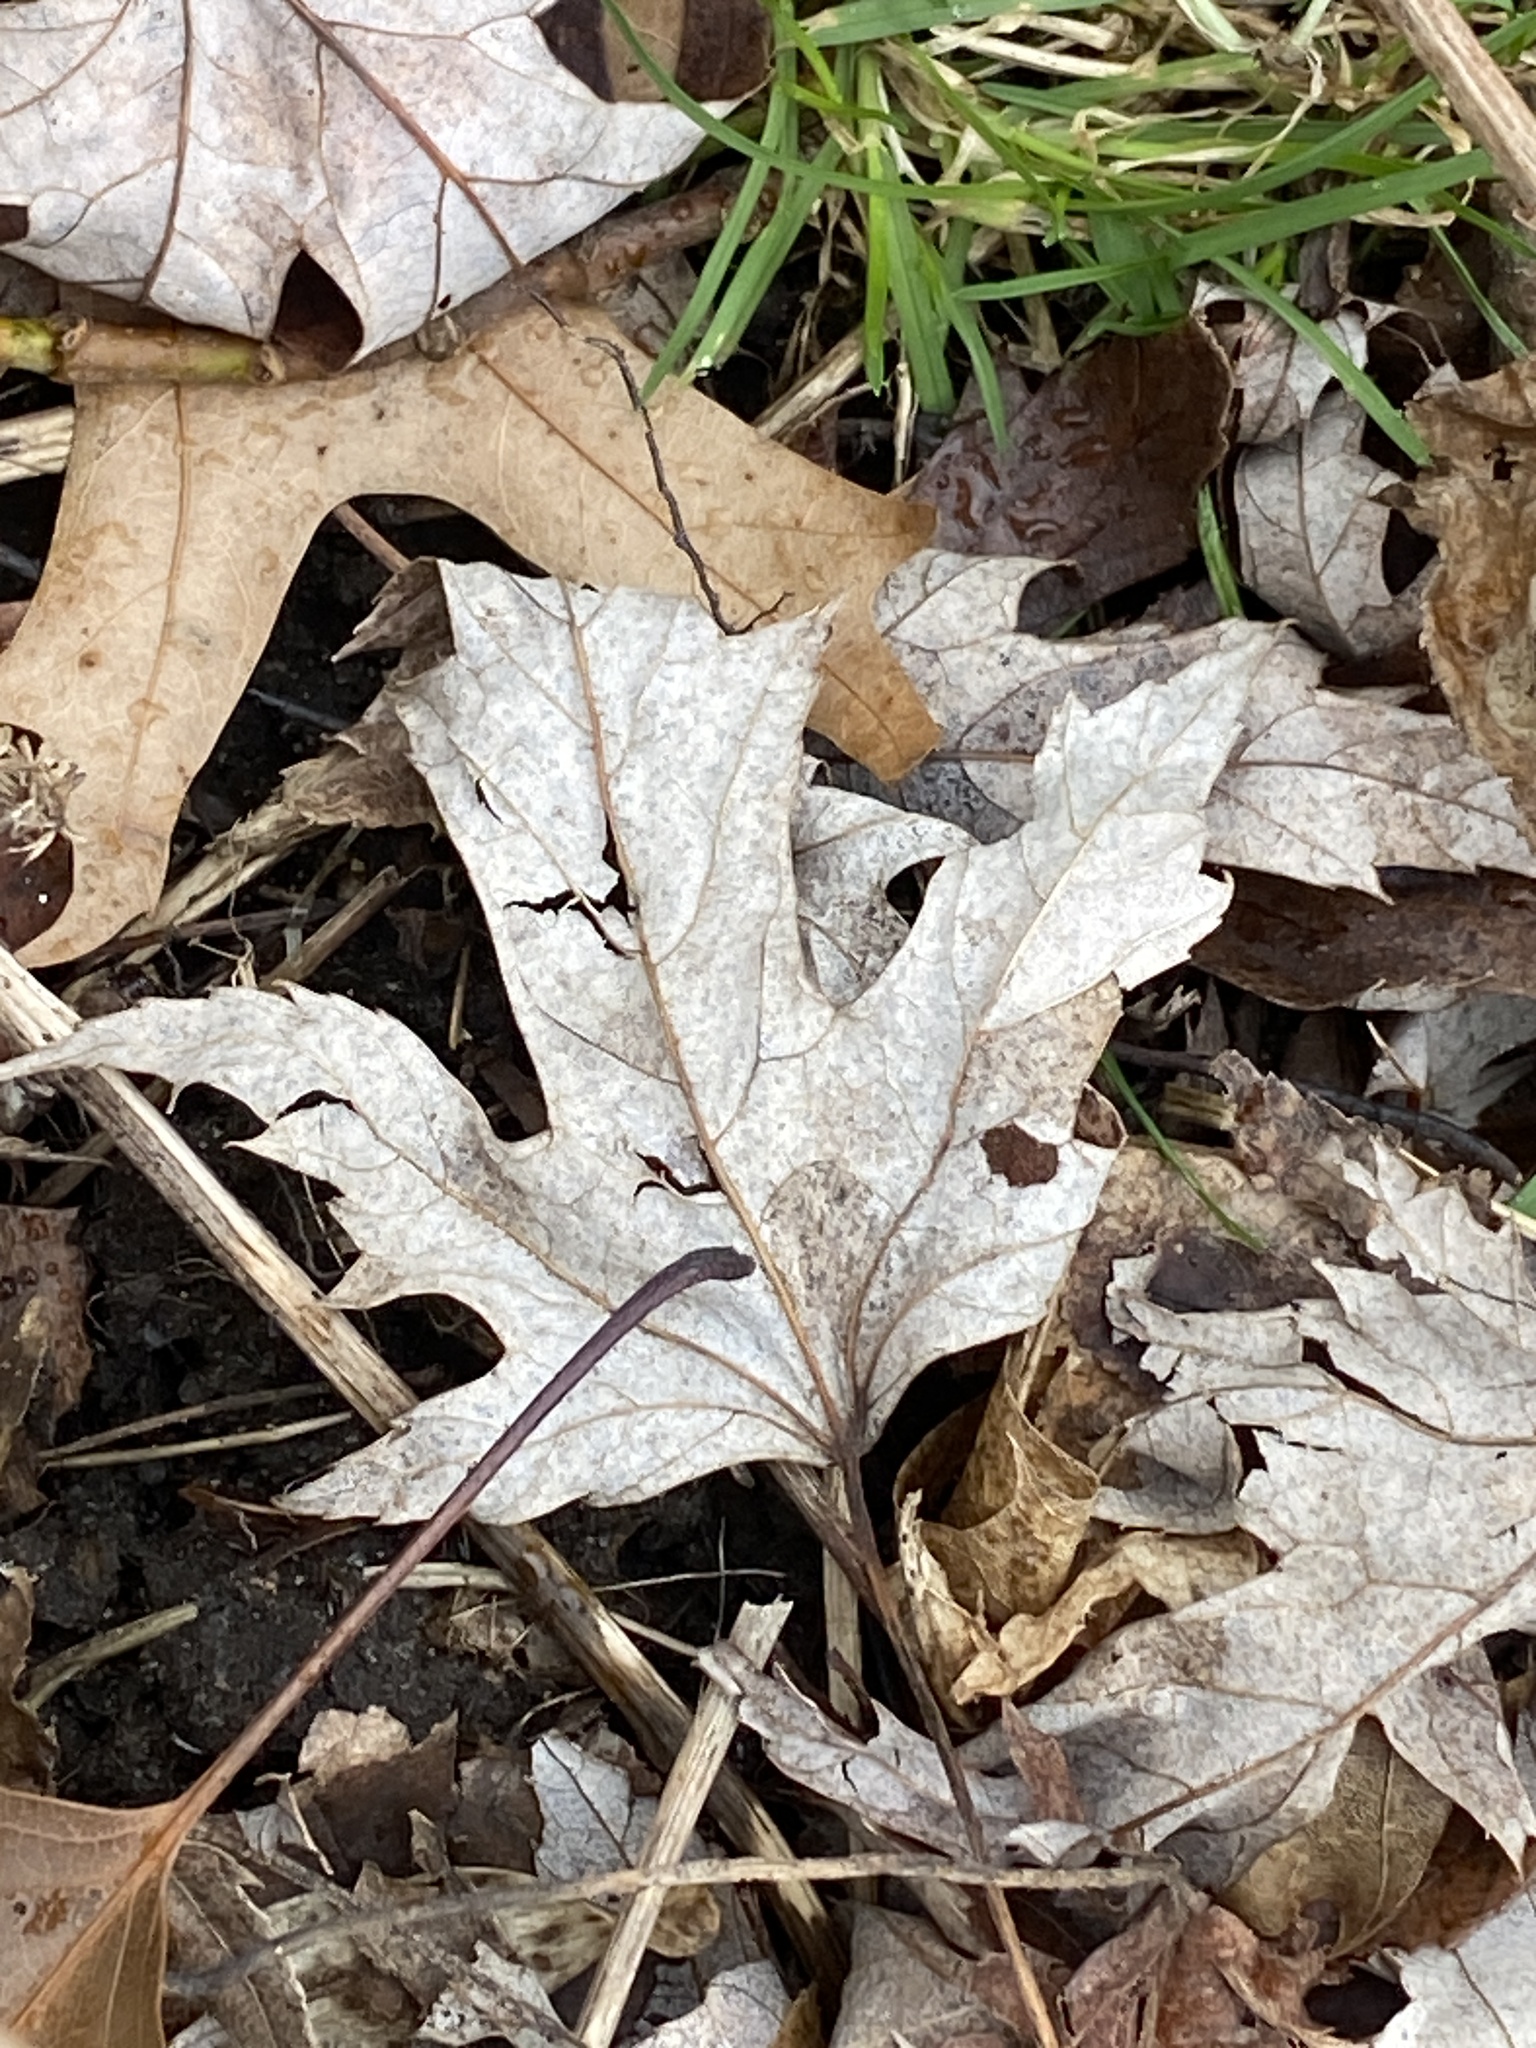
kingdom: Plantae
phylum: Tracheophyta
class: Magnoliopsida
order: Sapindales
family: Sapindaceae
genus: Acer
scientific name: Acer saccharinum
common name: Silver maple
